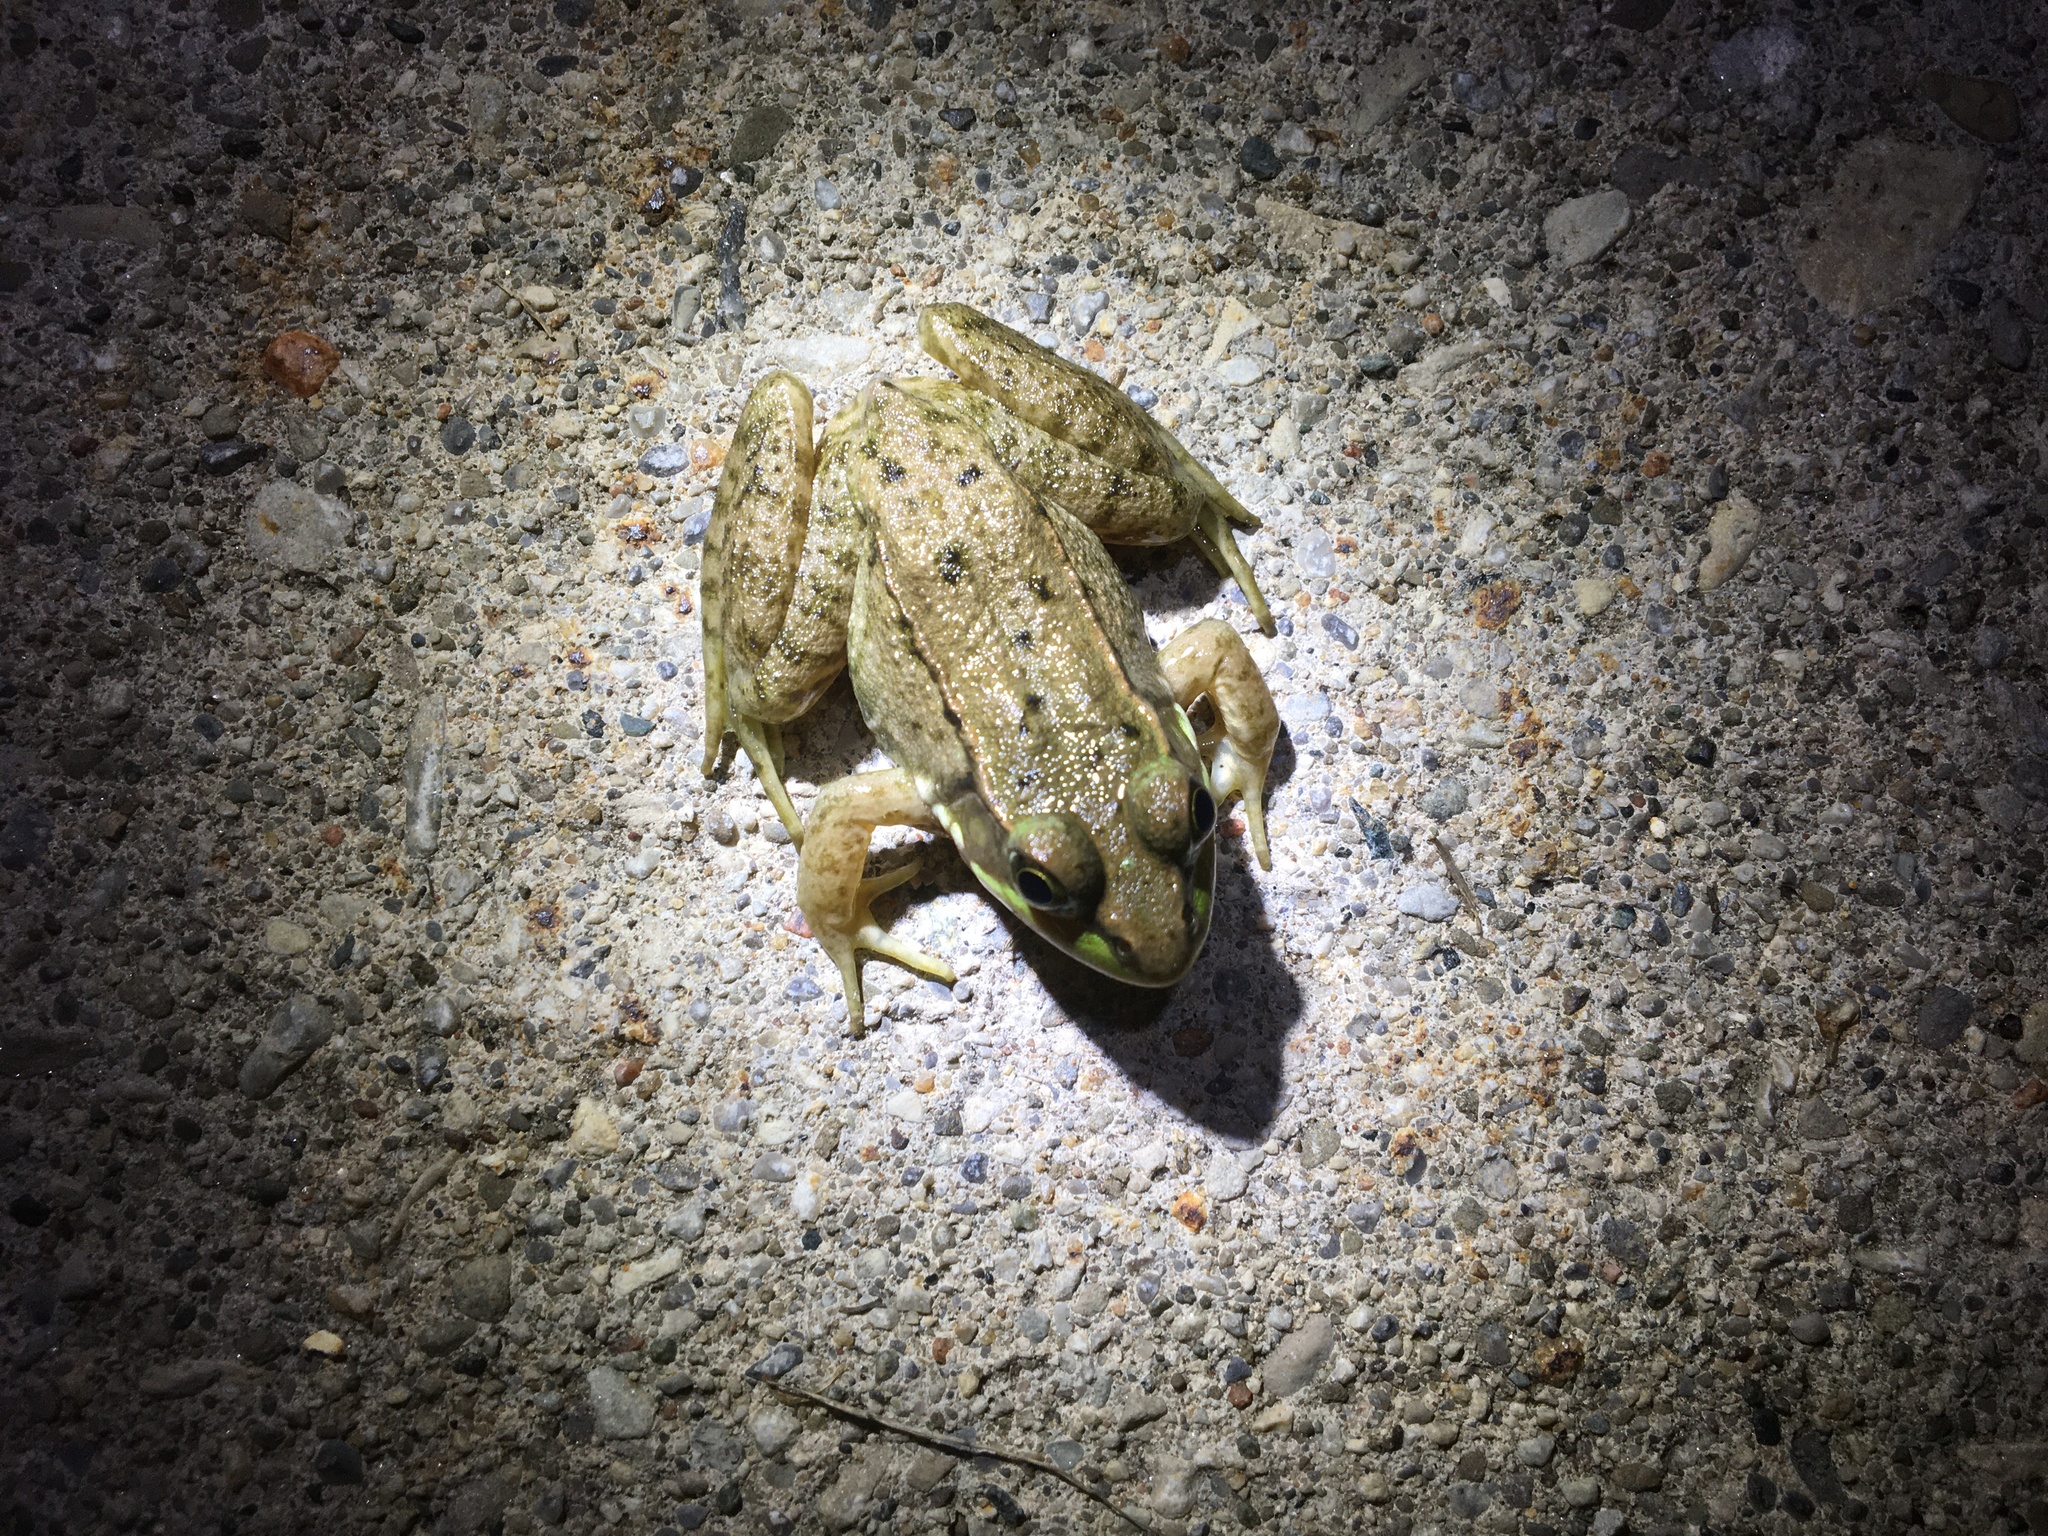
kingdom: Animalia
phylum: Chordata
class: Amphibia
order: Anura
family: Ranidae
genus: Lithobates
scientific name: Lithobates clamitans
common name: Green frog
